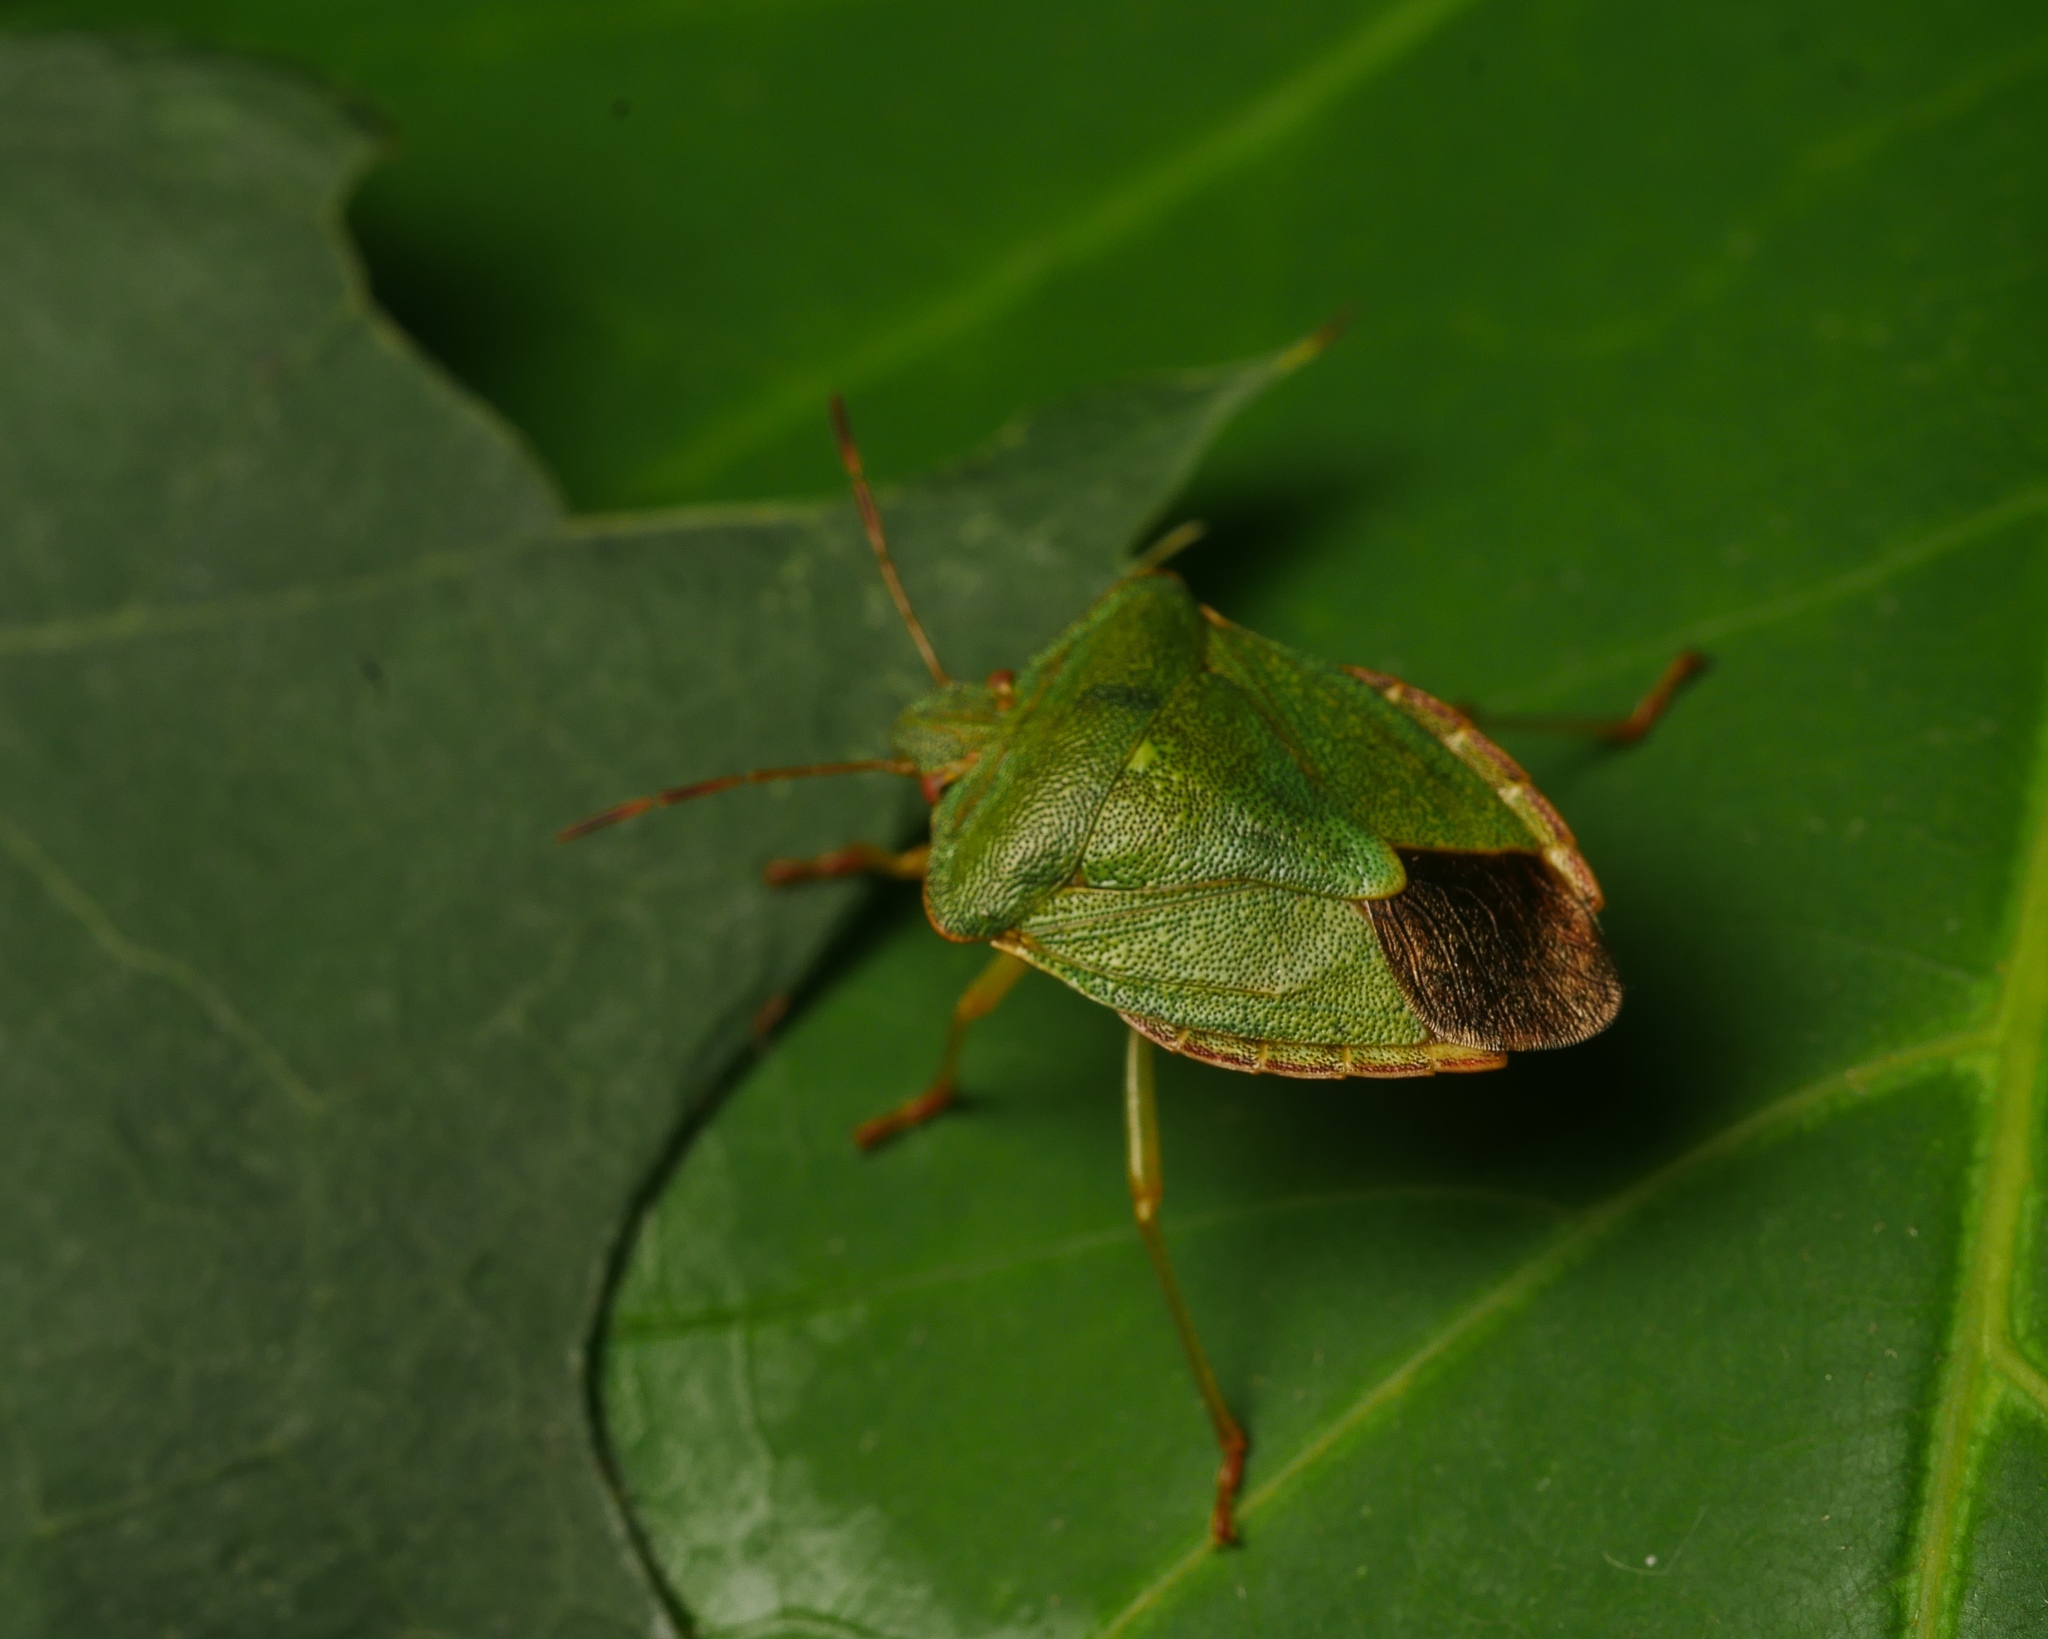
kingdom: Animalia
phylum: Arthropoda
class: Insecta
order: Hemiptera
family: Pentatomidae
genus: Palomena
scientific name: Palomena prasina
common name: Green shieldbug
